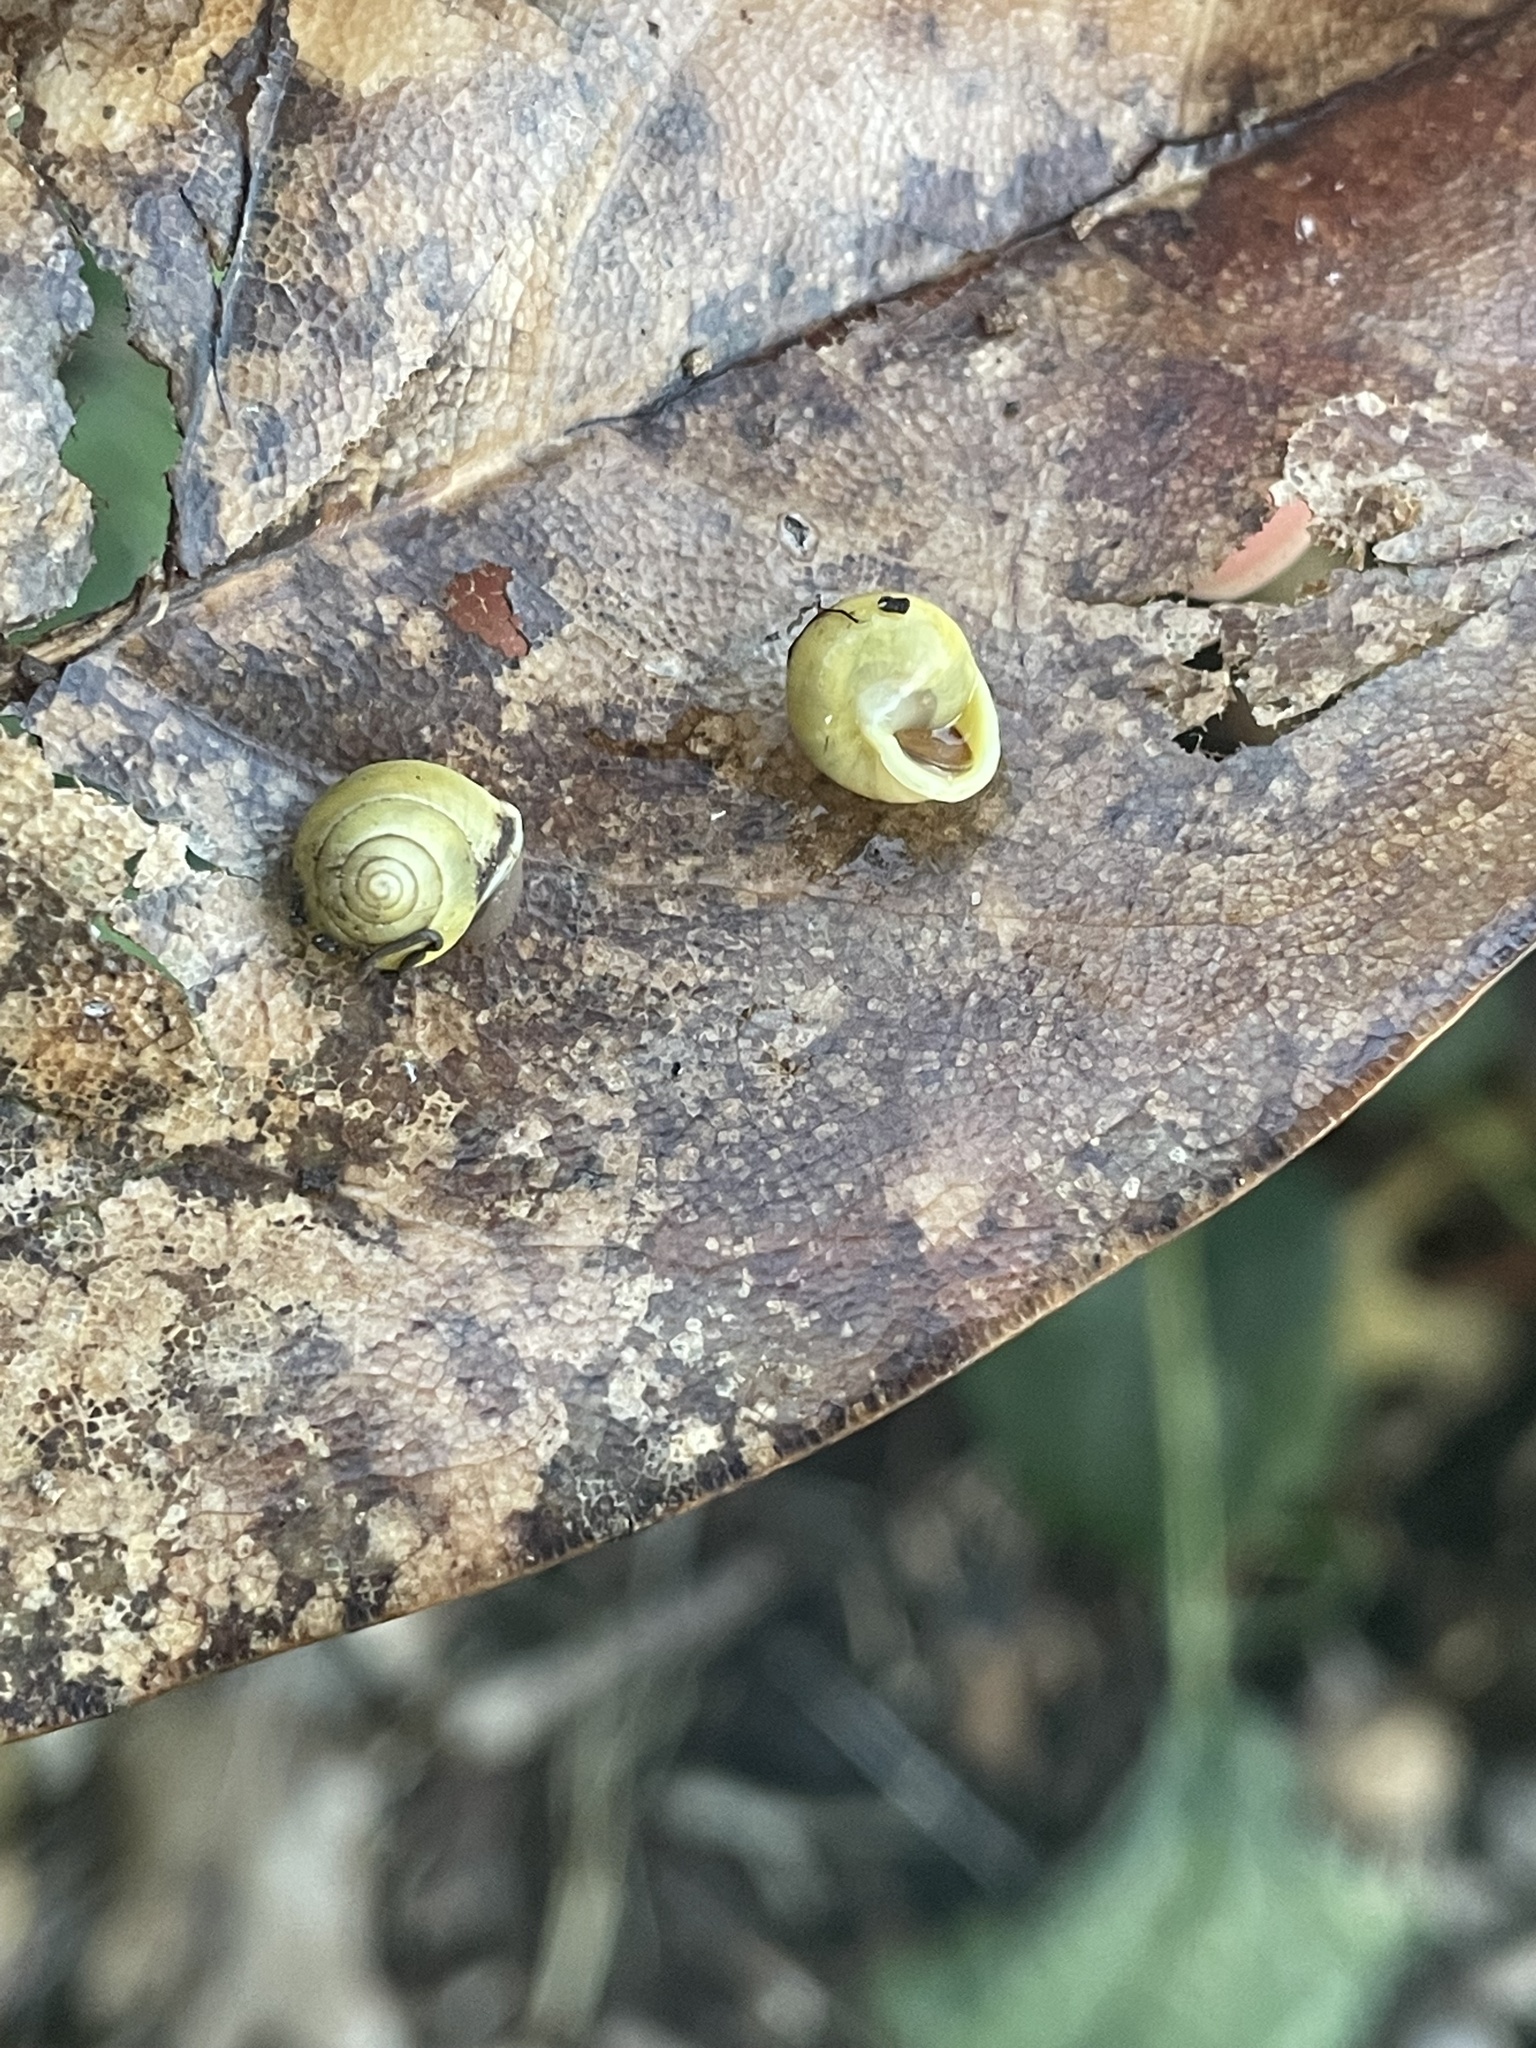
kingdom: Animalia
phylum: Mollusca
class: Gastropoda
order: Cycloneritida
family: Helicinidae
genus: Helicina
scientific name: Helicina orbiculata
